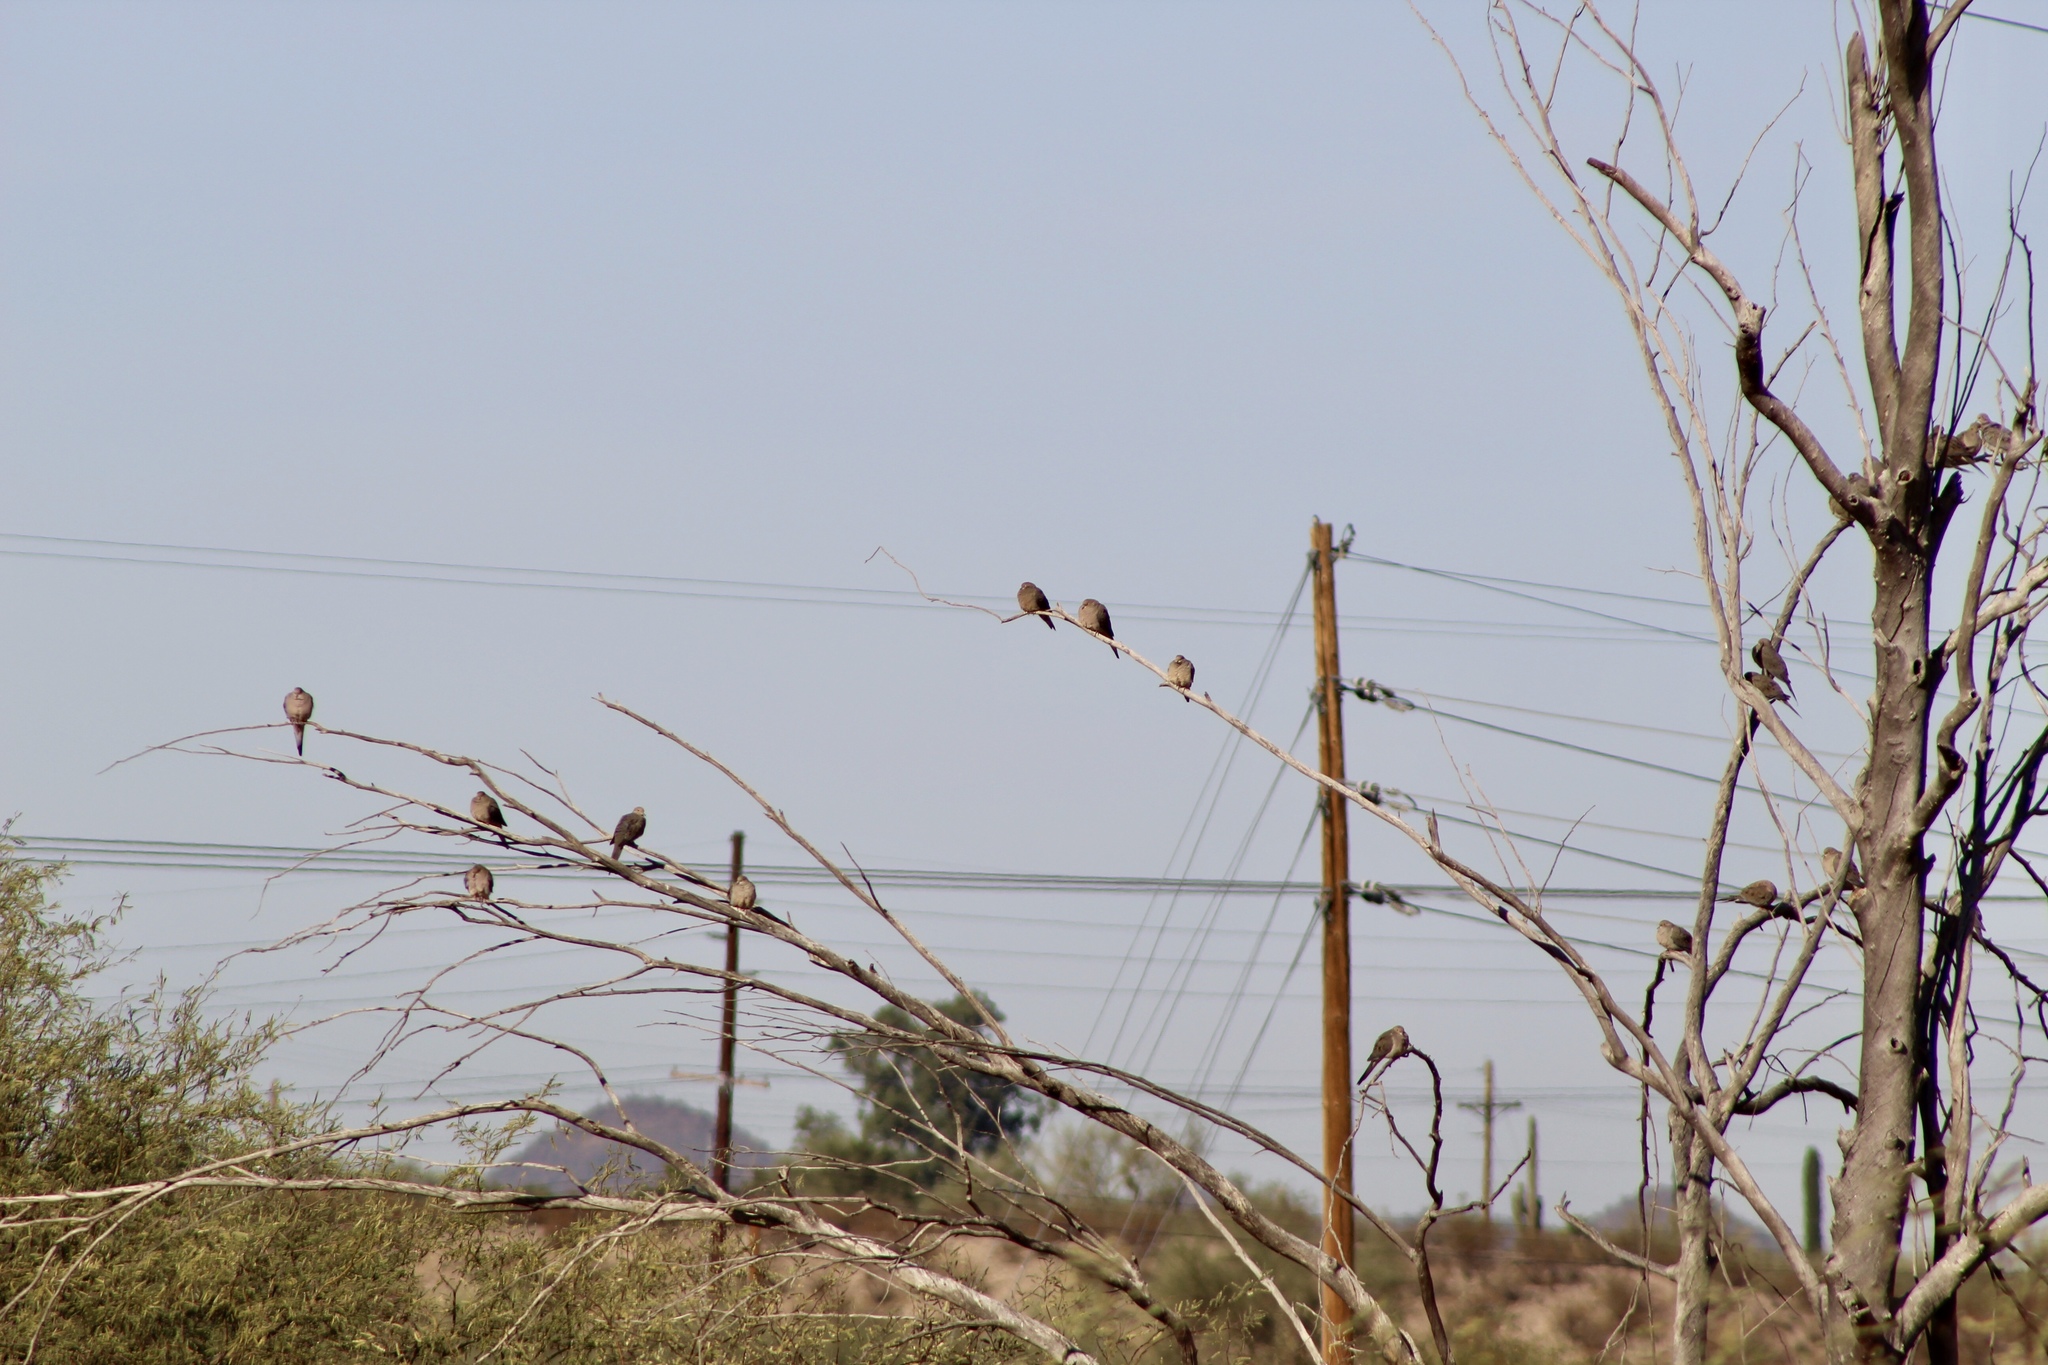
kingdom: Animalia
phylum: Chordata
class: Aves
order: Columbiformes
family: Columbidae
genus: Zenaida
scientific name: Zenaida macroura
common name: Mourning dove
